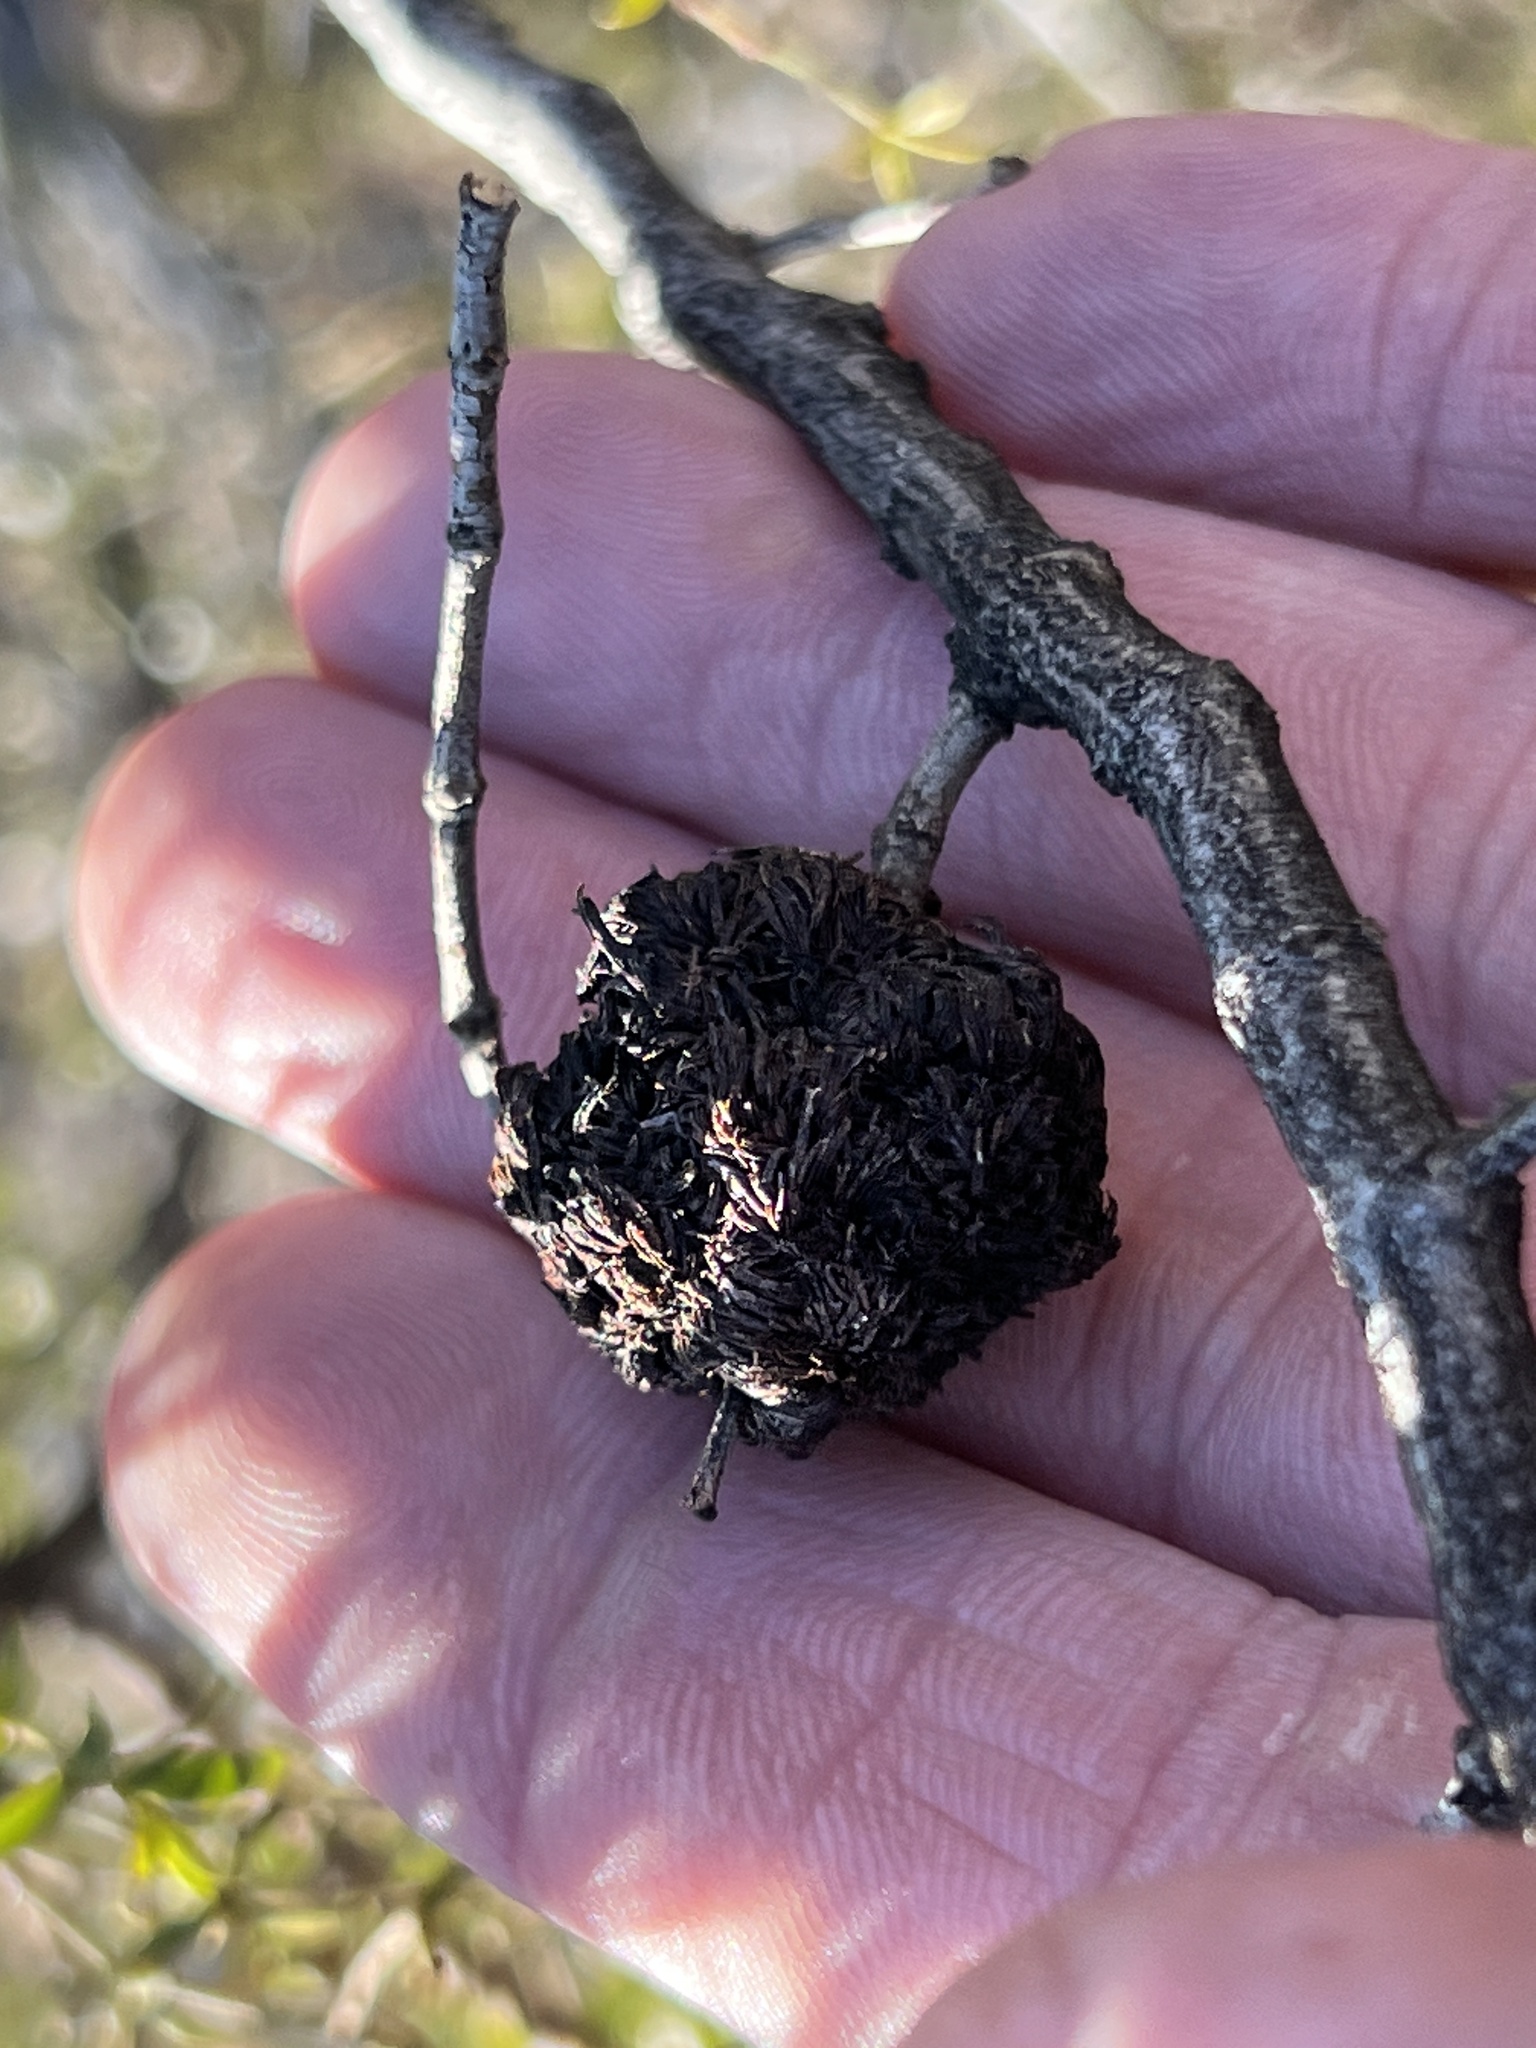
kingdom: Animalia
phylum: Arthropoda
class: Insecta
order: Diptera
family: Cecidomyiidae
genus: Asphondylia
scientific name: Asphondylia auripila
